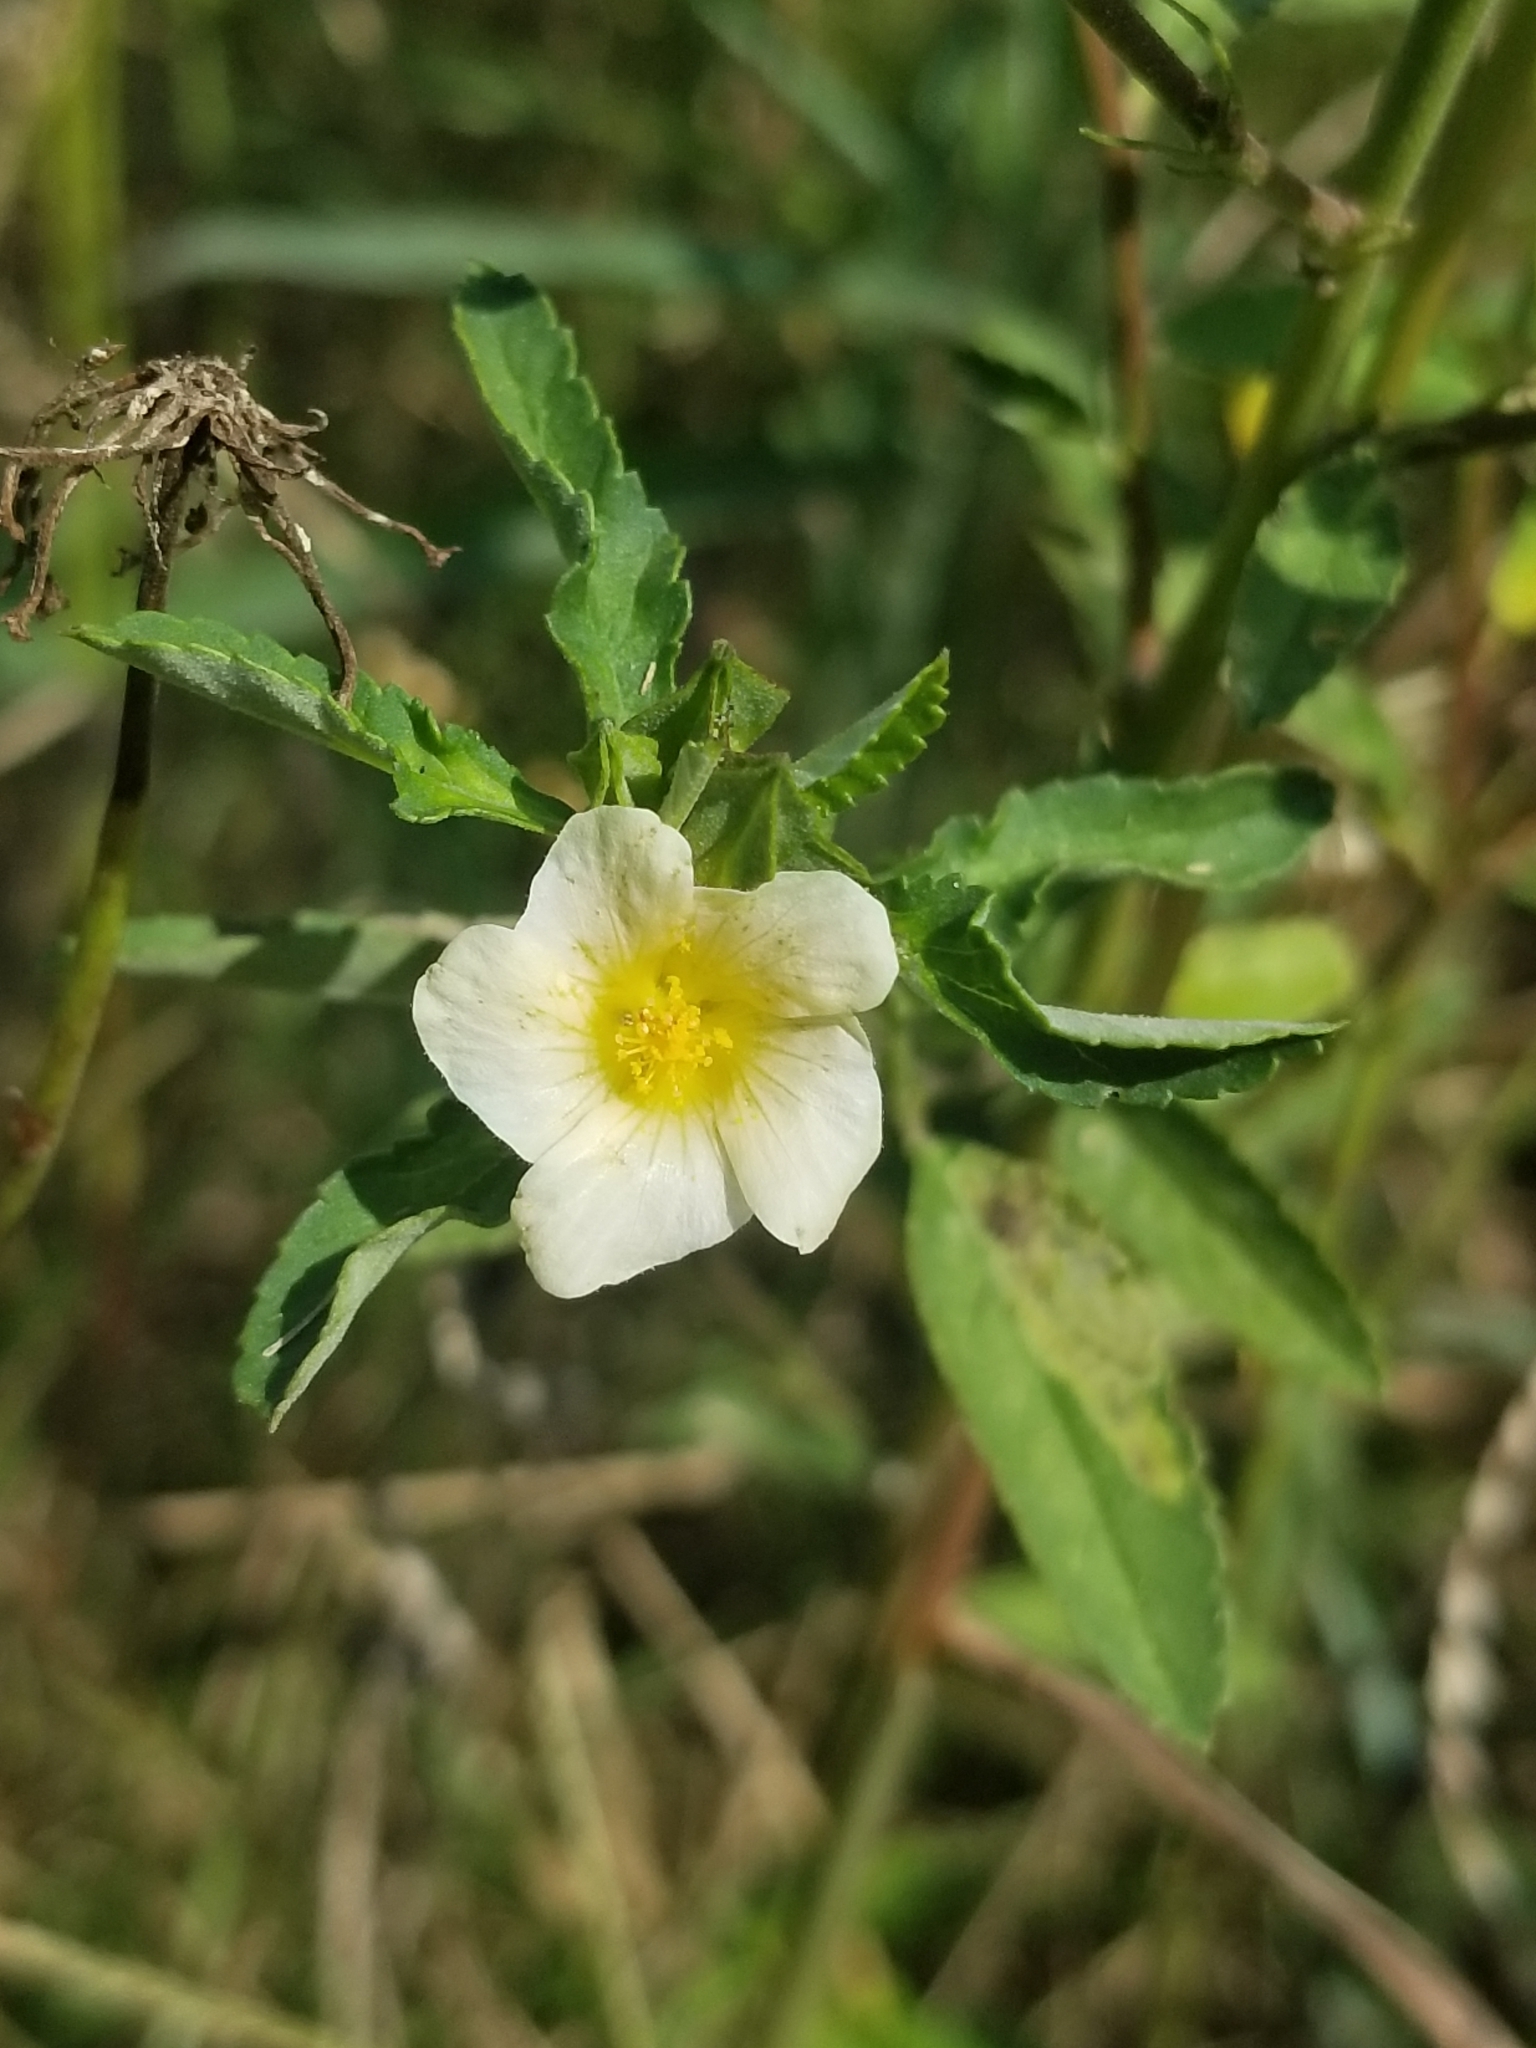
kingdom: Plantae
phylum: Tracheophyta
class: Magnoliopsida
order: Malvales
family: Malvaceae
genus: Sida
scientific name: Sida rhombifolia
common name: Queensland-hemp
